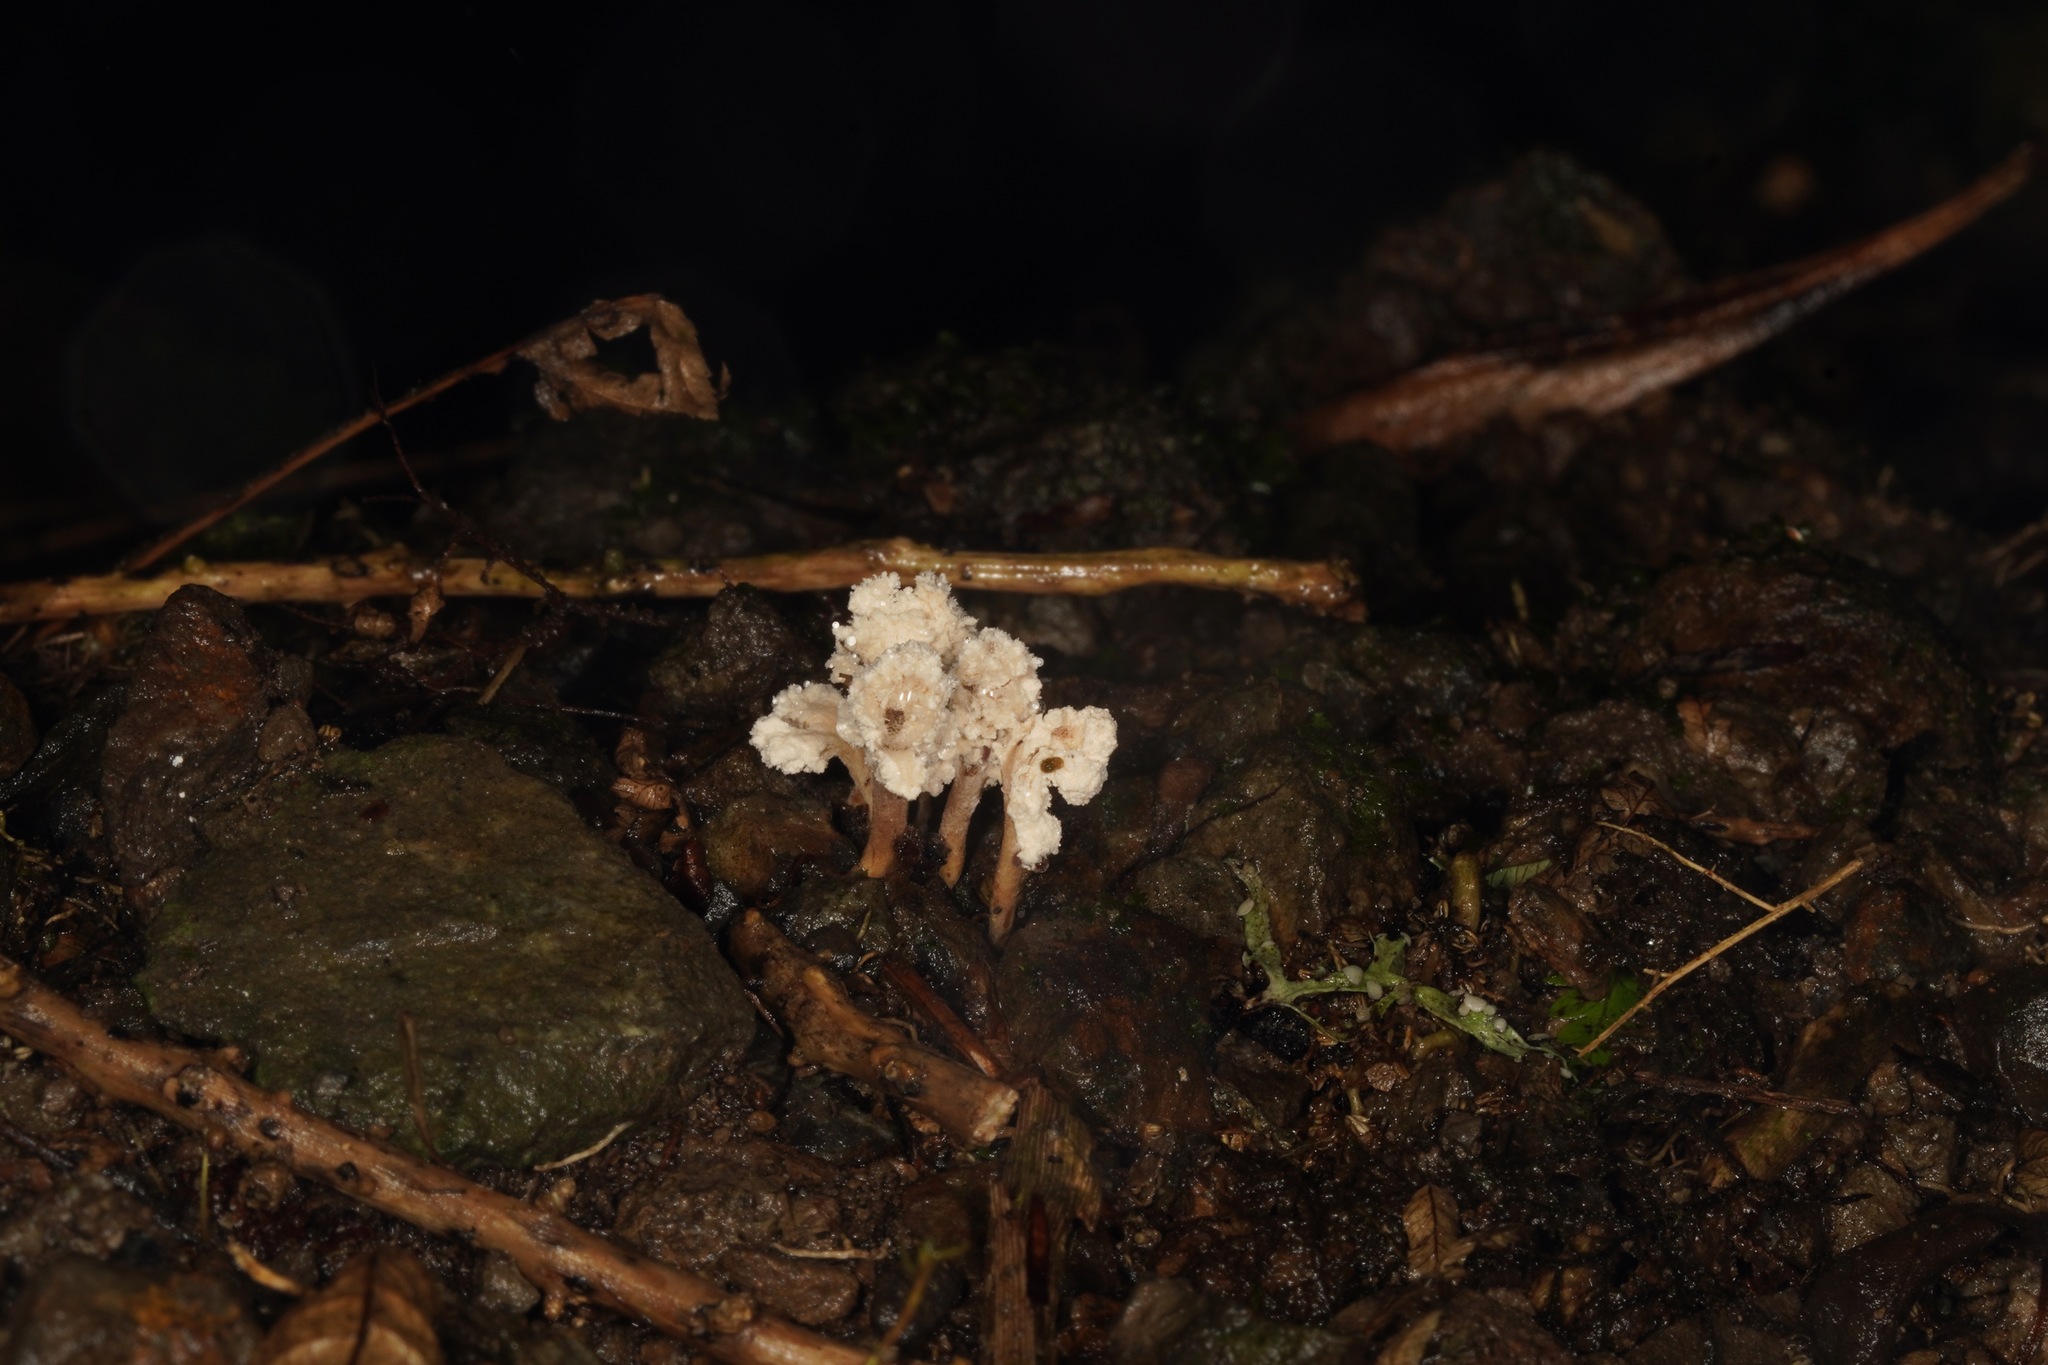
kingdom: Fungi
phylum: Ascomycota
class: Sordariomycetes
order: Hypocreales
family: Cordycipitaceae
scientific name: Cordycipitaceae
